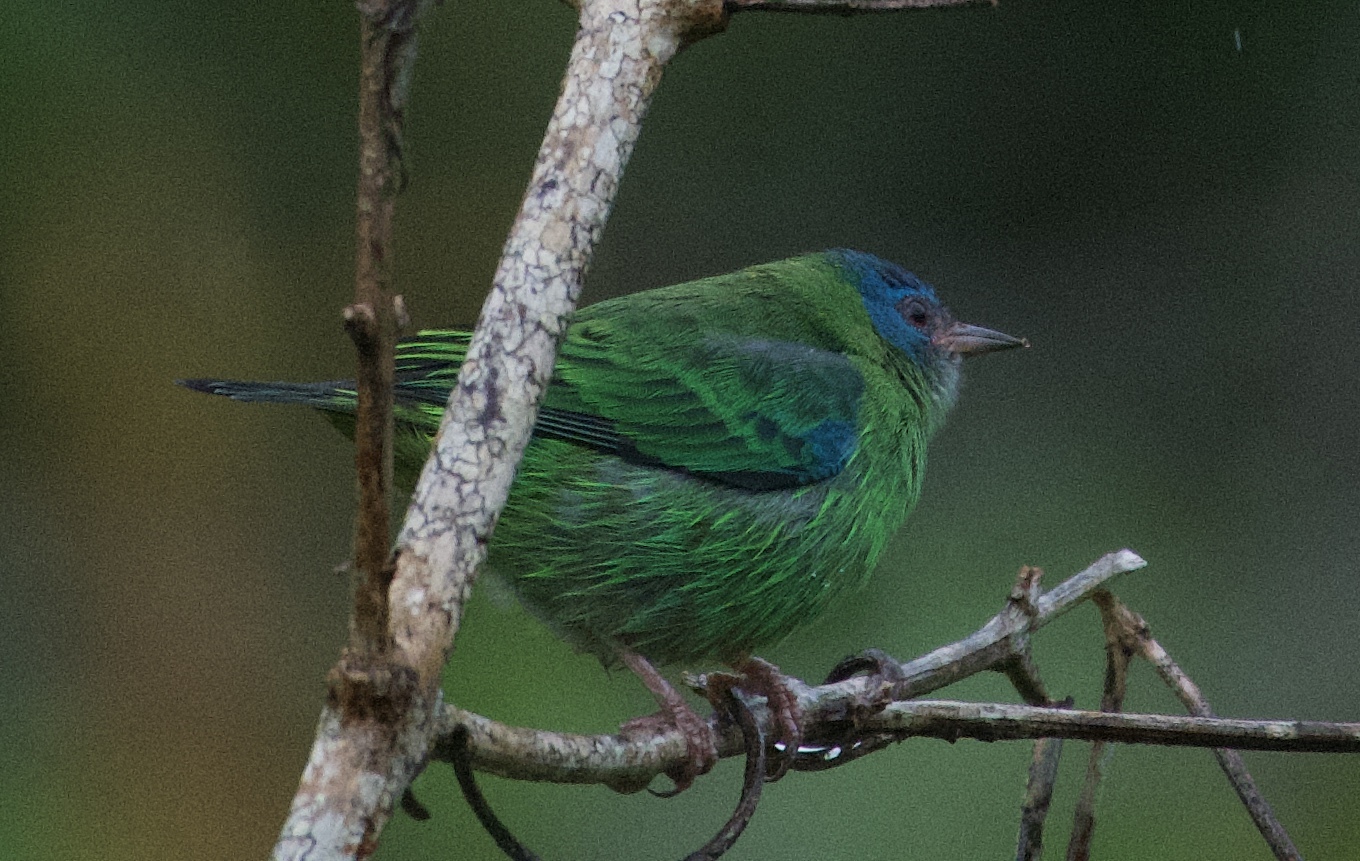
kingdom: Animalia
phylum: Chordata
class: Aves
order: Passeriformes
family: Thraupidae
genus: Dacnis
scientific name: Dacnis cayana
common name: Blue dacnis
